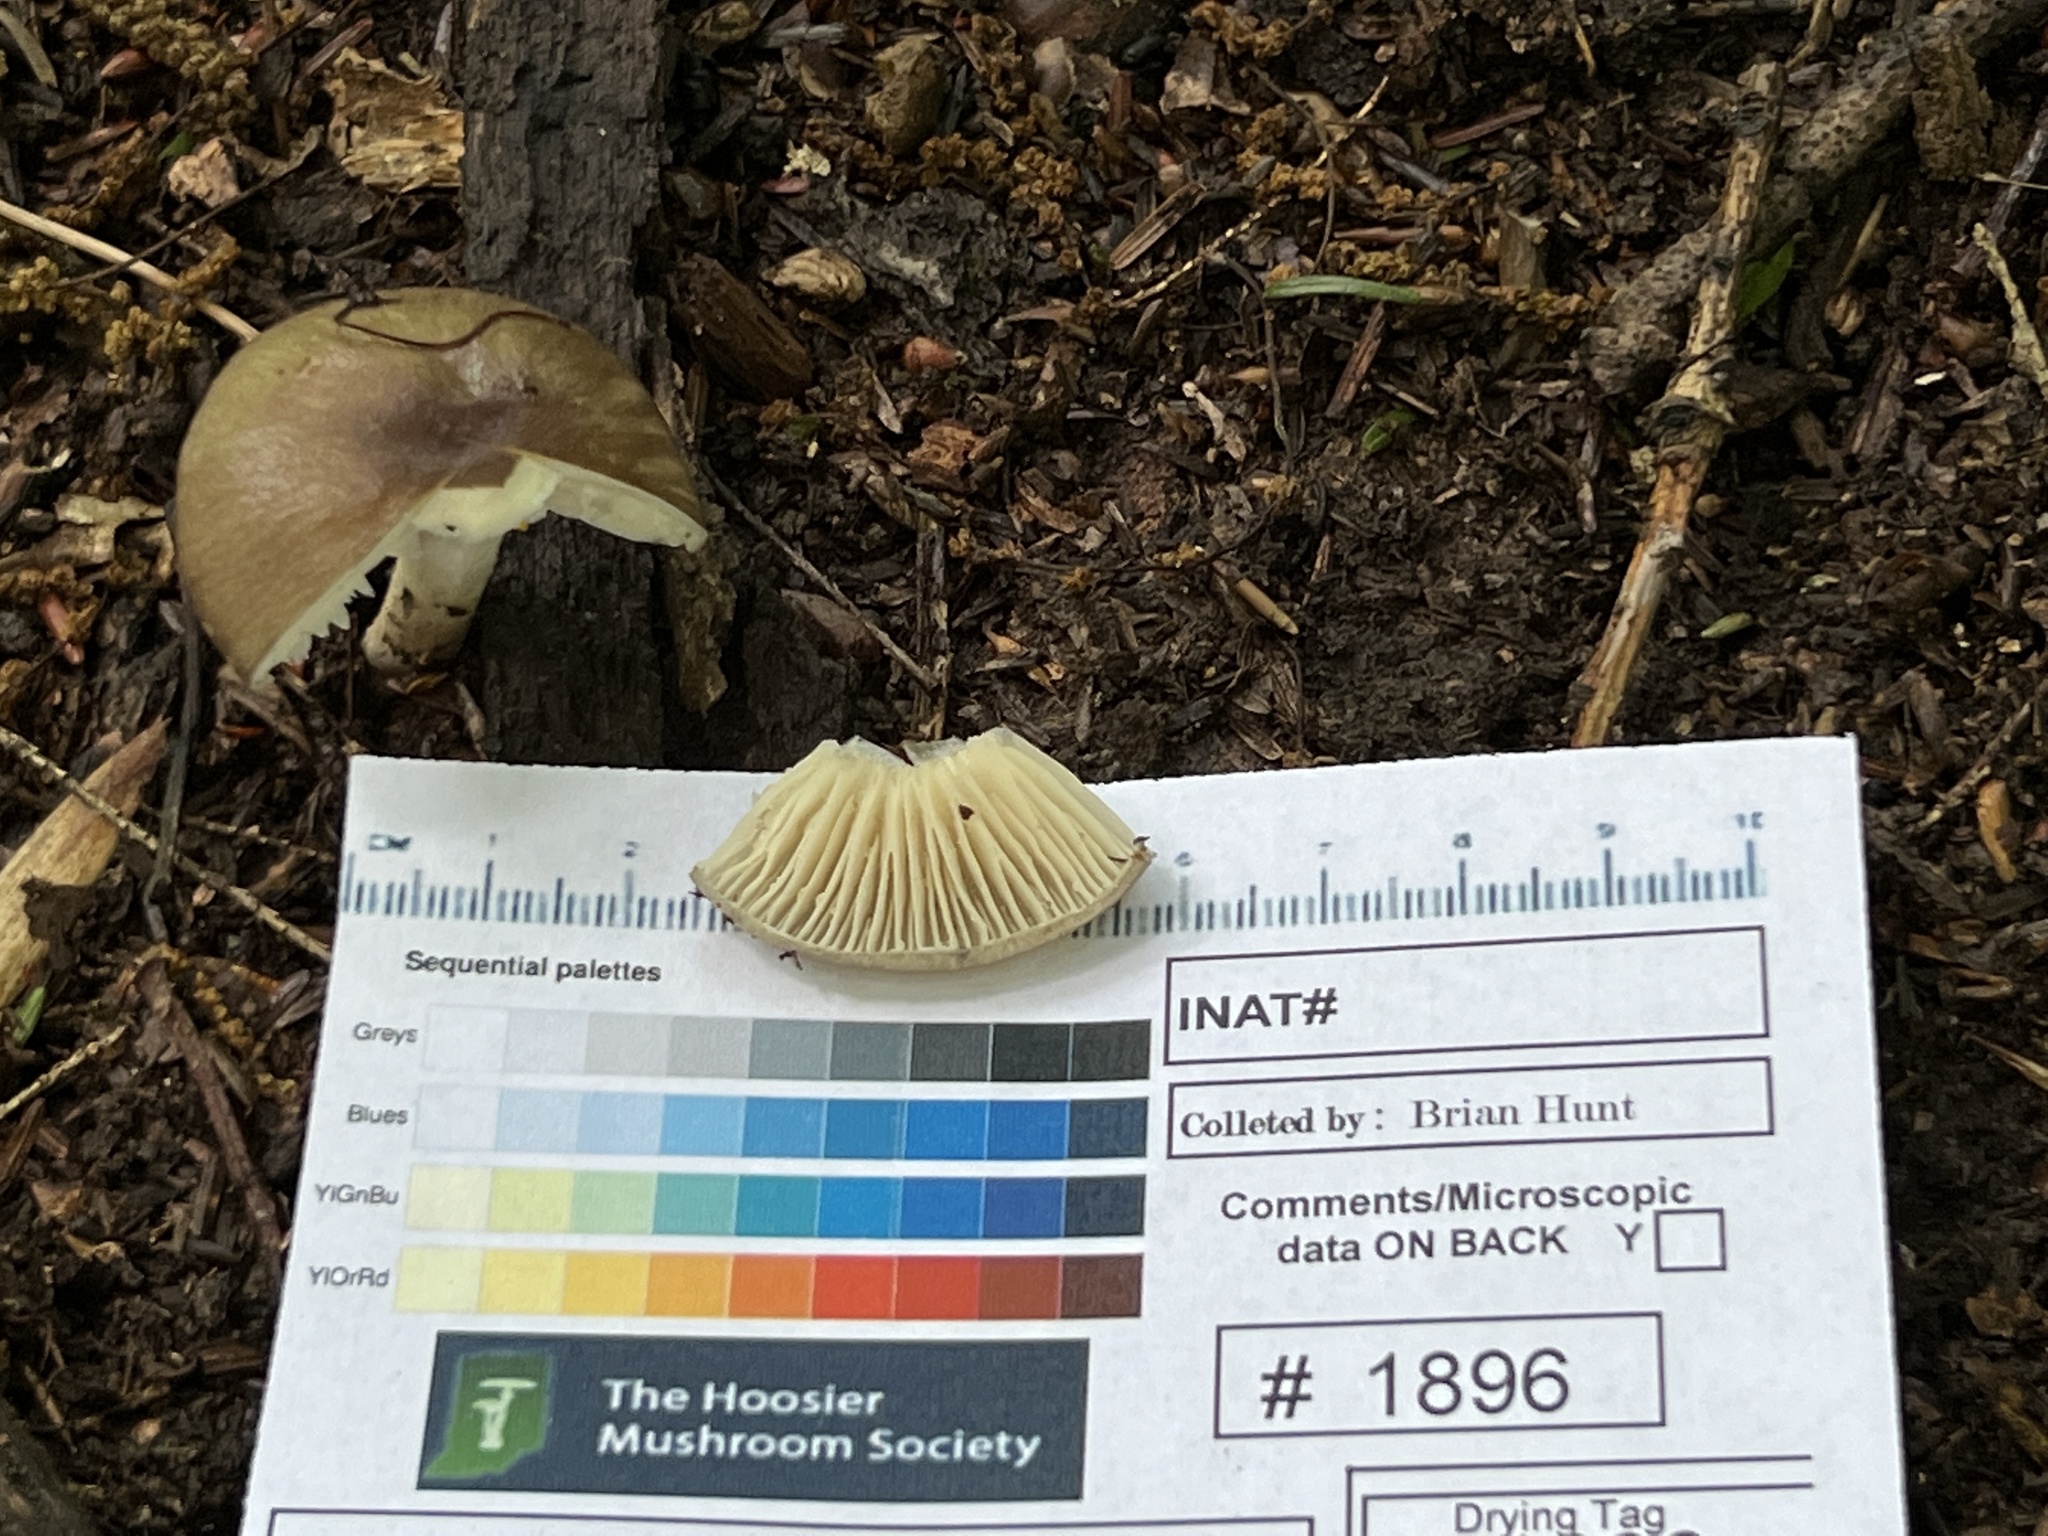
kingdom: Fungi
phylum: Basidiomycota
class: Agaricomycetes
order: Agaricales
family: Tricholomataceae
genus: Megacollybia
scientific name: Megacollybia subfurfuracea
